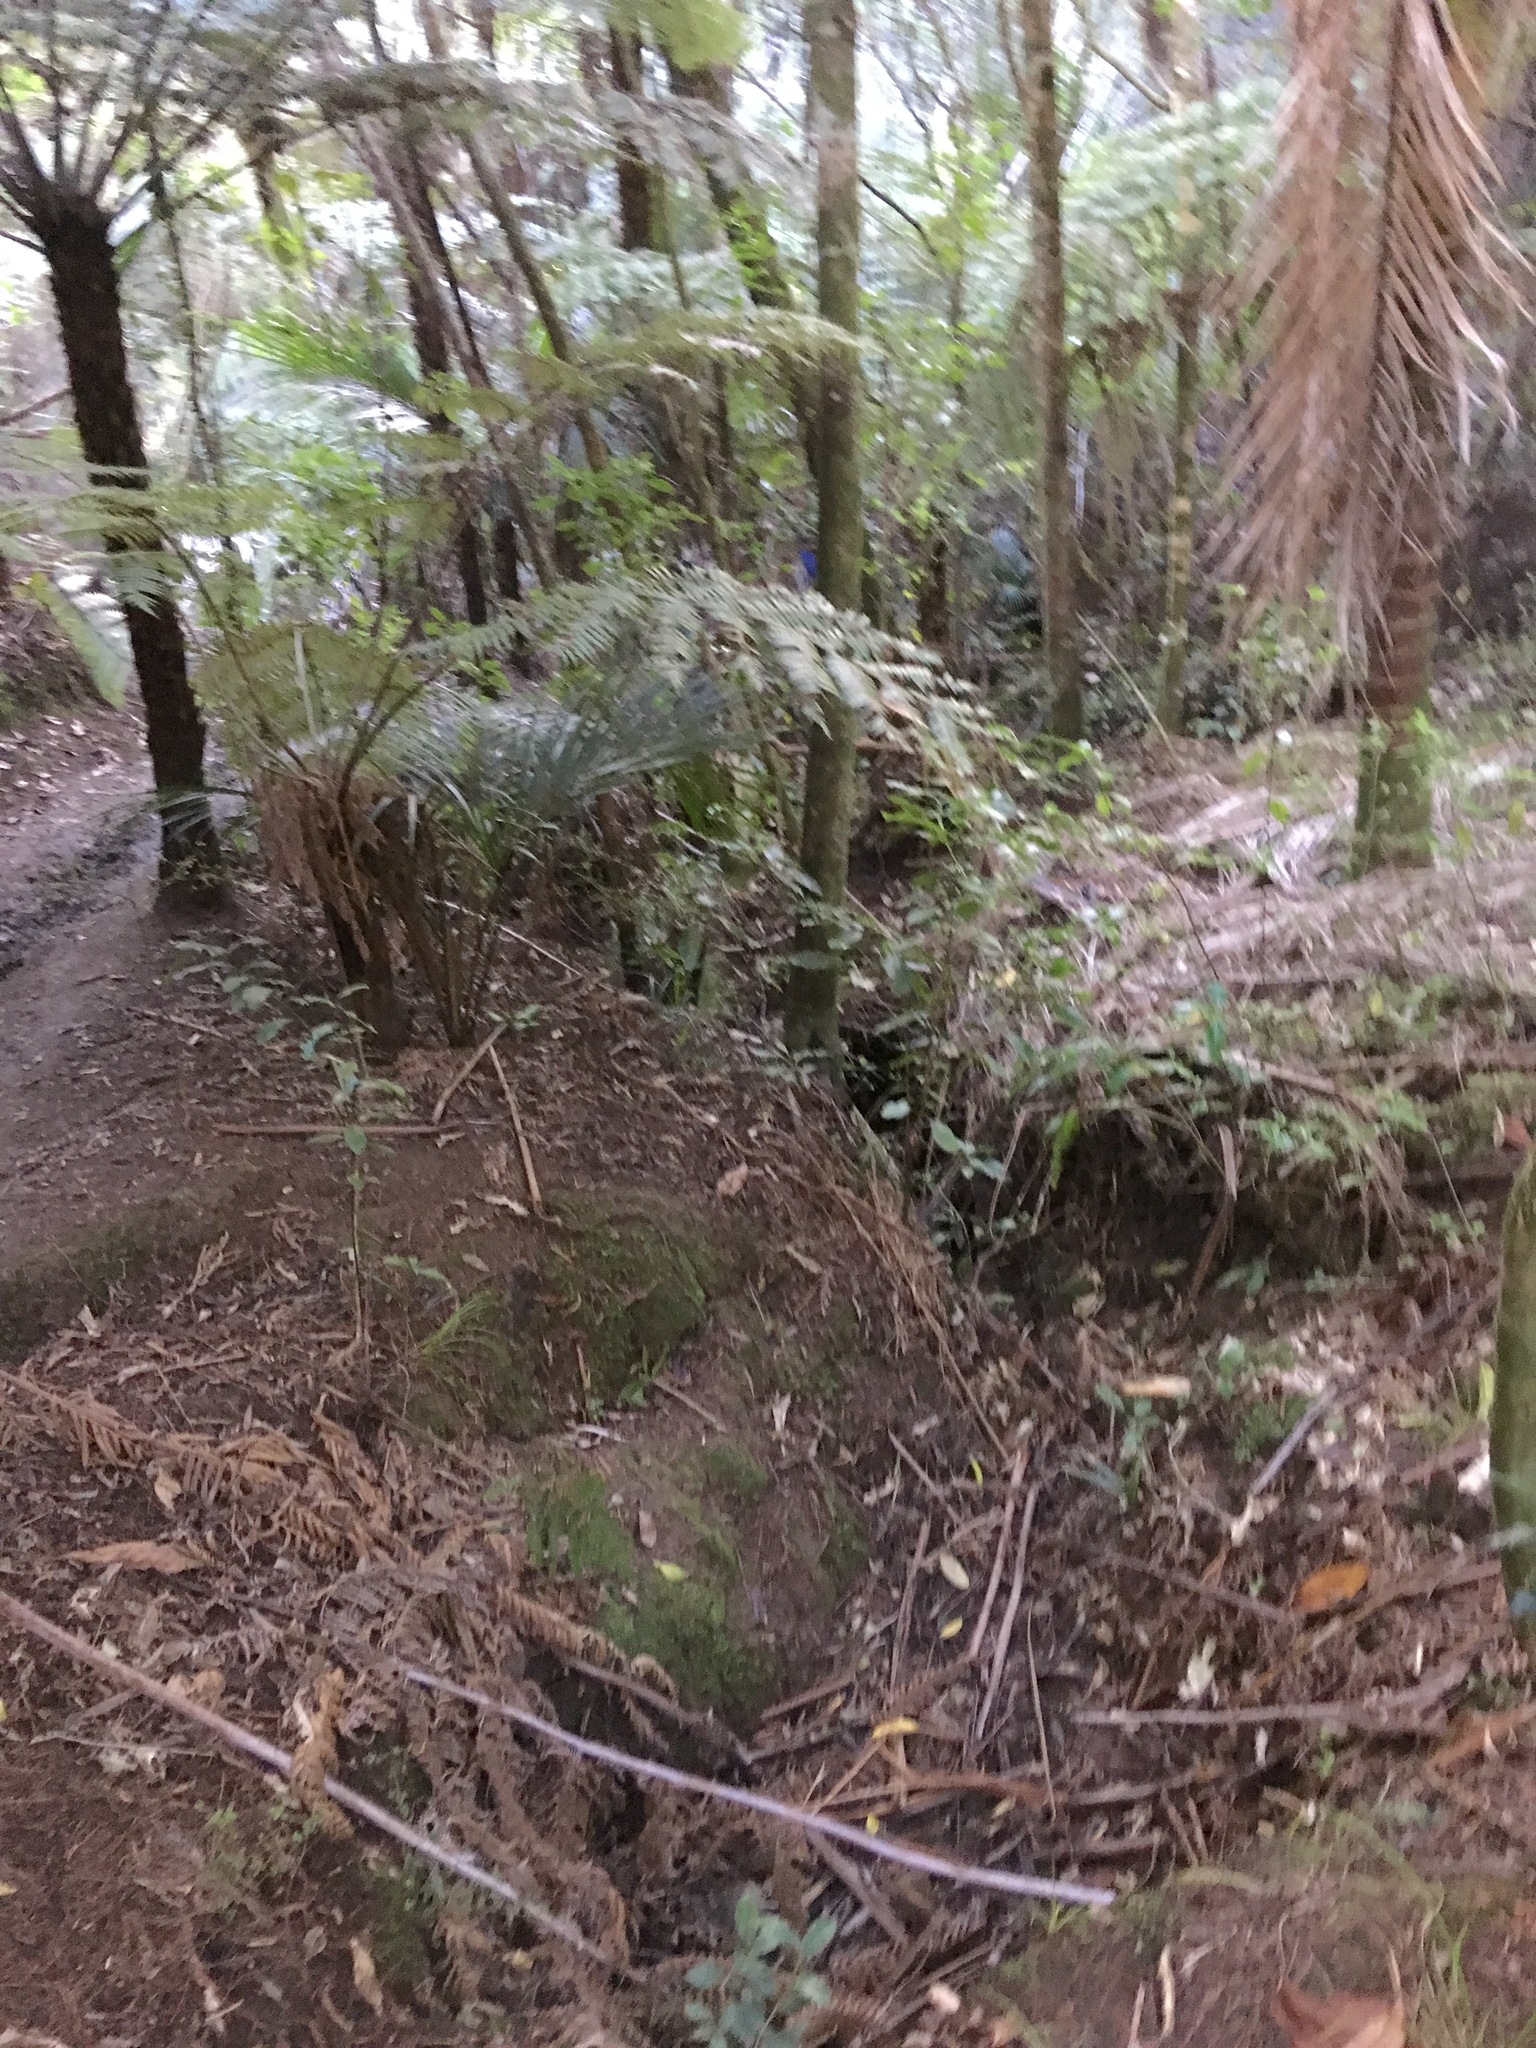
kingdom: Plantae
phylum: Tracheophyta
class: Polypodiopsida
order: Cyatheales
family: Cyatheaceae
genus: Alsophila
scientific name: Alsophila dealbata
